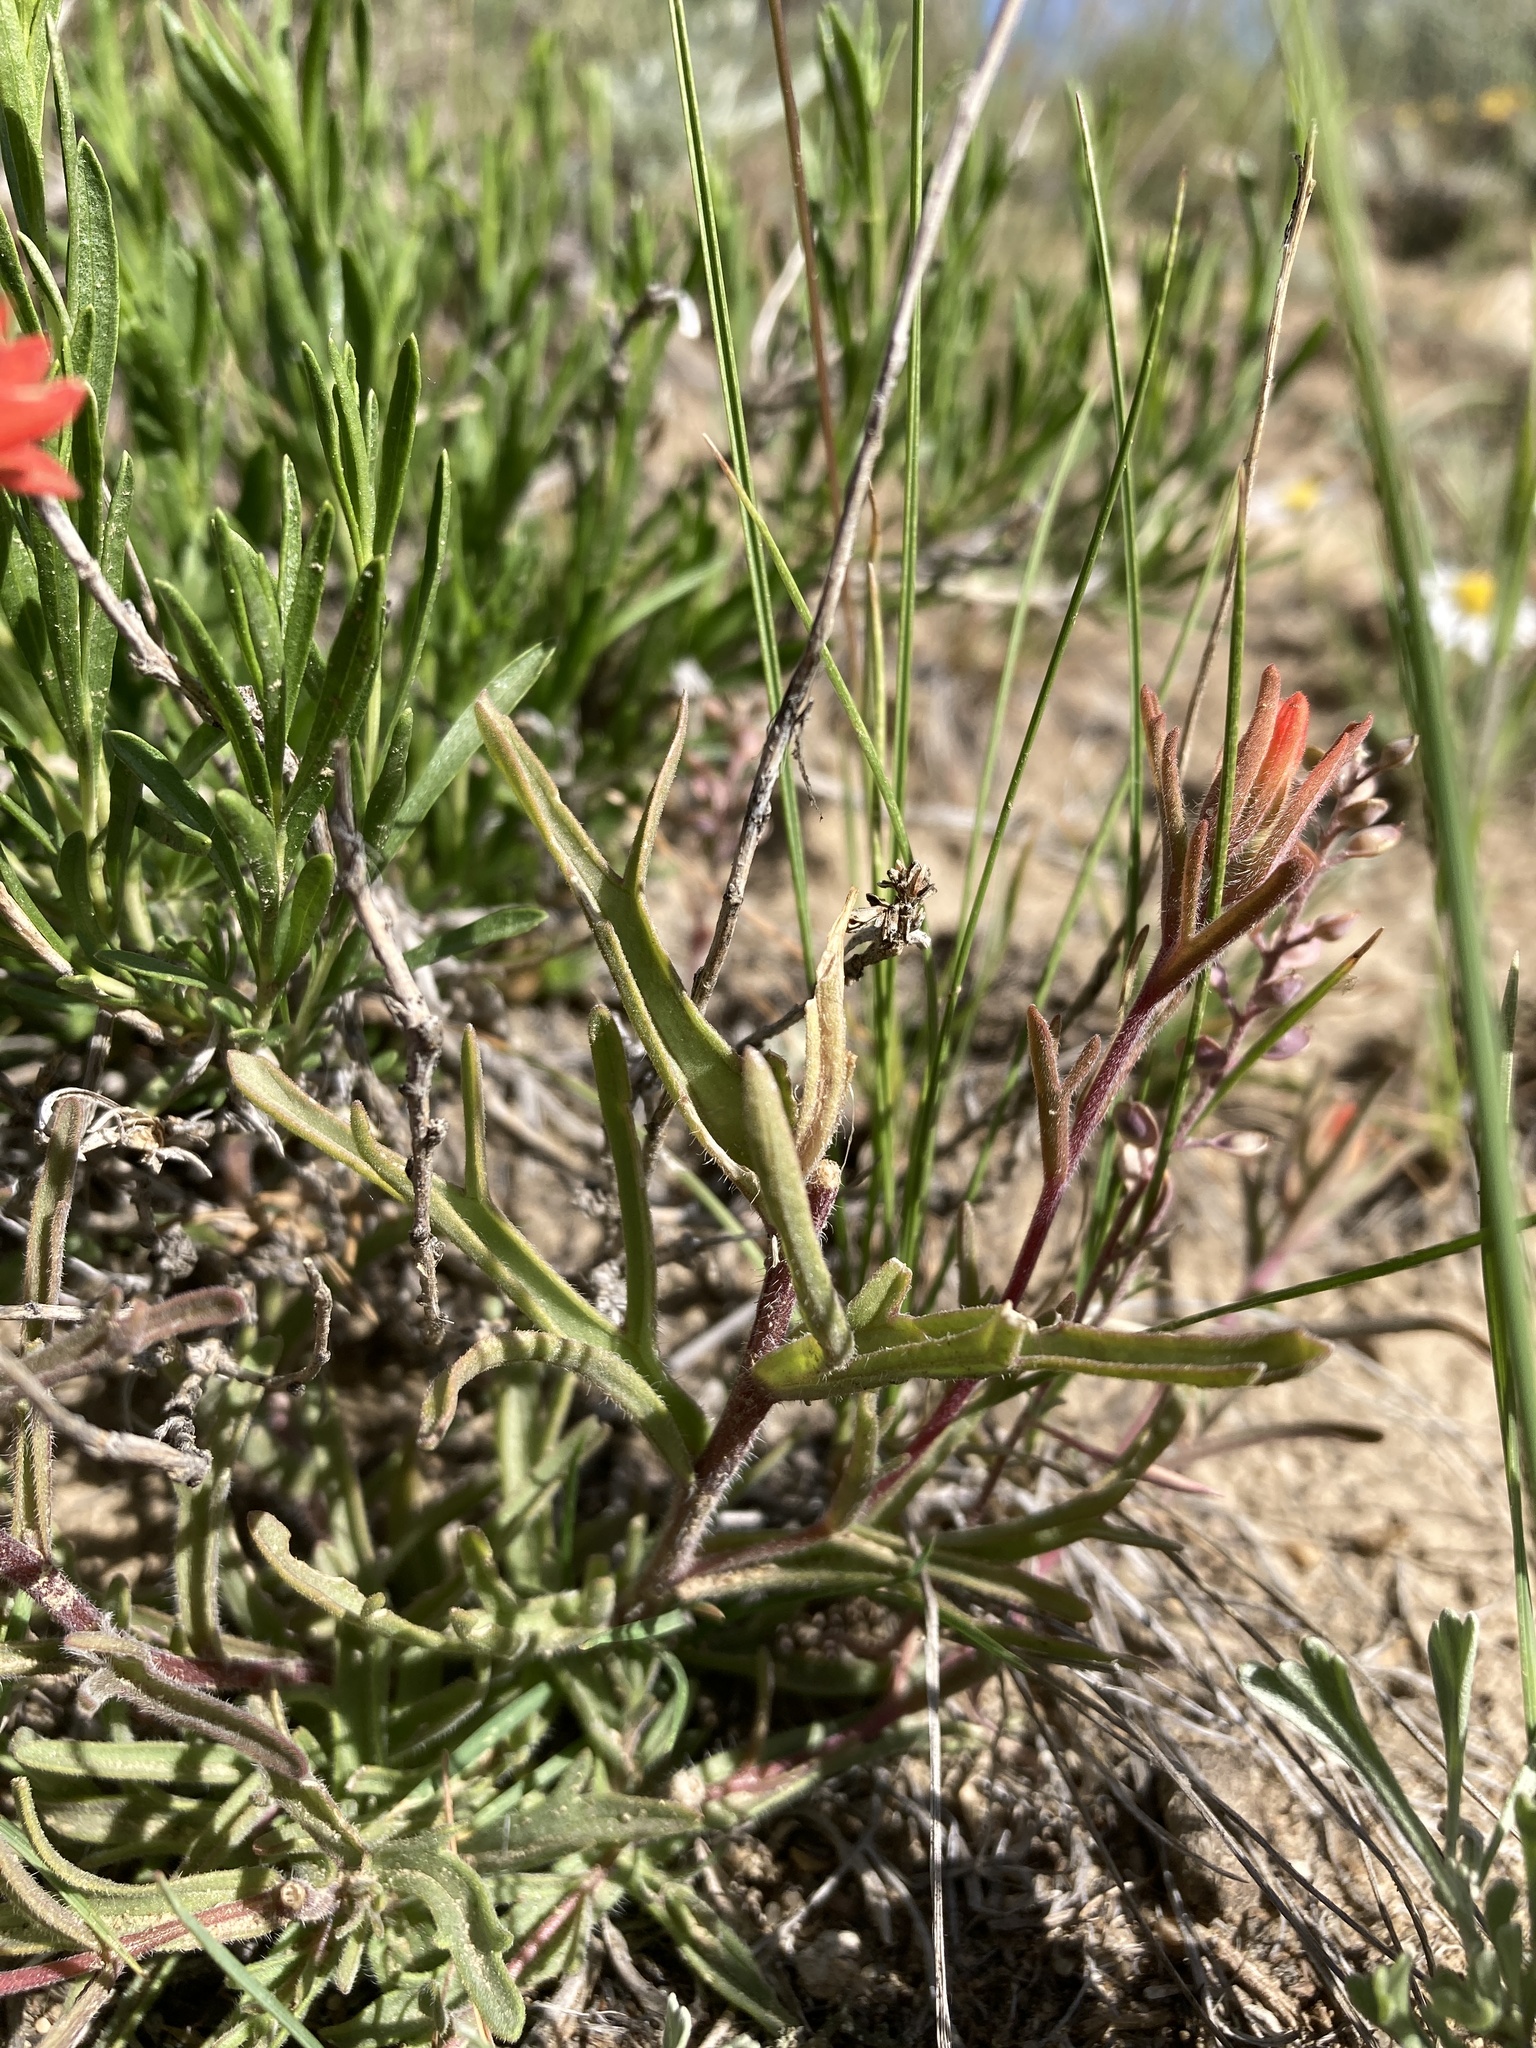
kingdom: Plantae
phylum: Tracheophyta
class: Magnoliopsida
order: Lamiales
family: Orobanchaceae
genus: Castilleja
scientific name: Castilleja chromosa
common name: Desert paintbrush
